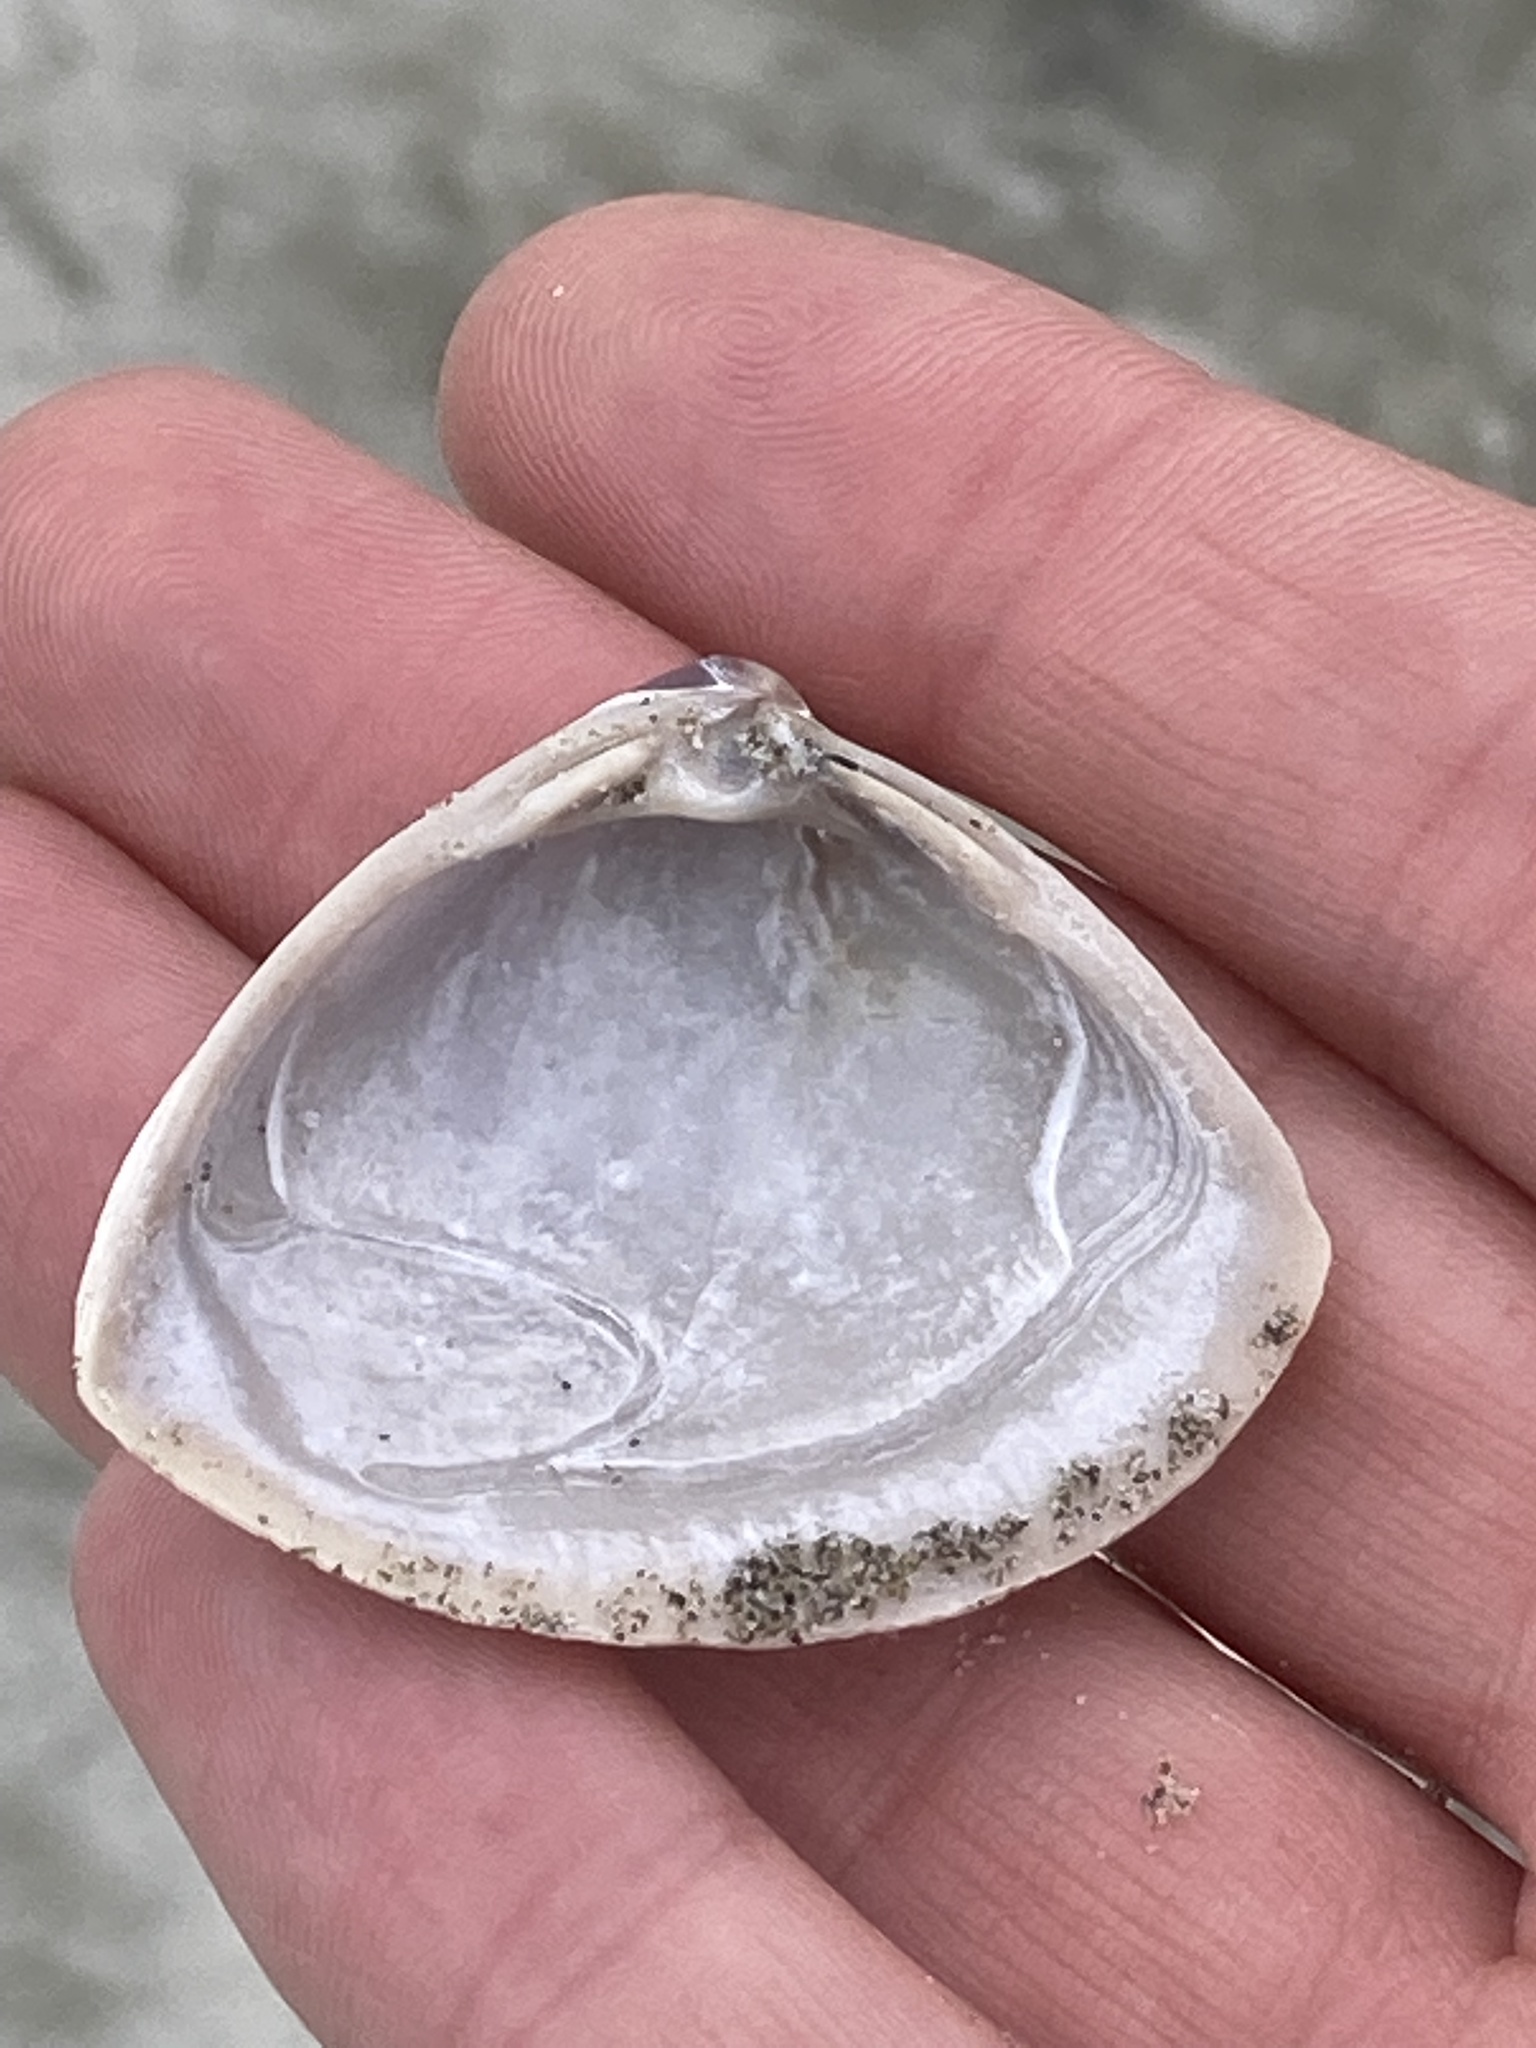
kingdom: Animalia
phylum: Mollusca
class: Bivalvia
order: Venerida
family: Mactridae
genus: Crassula
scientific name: Crassula aequilatera
